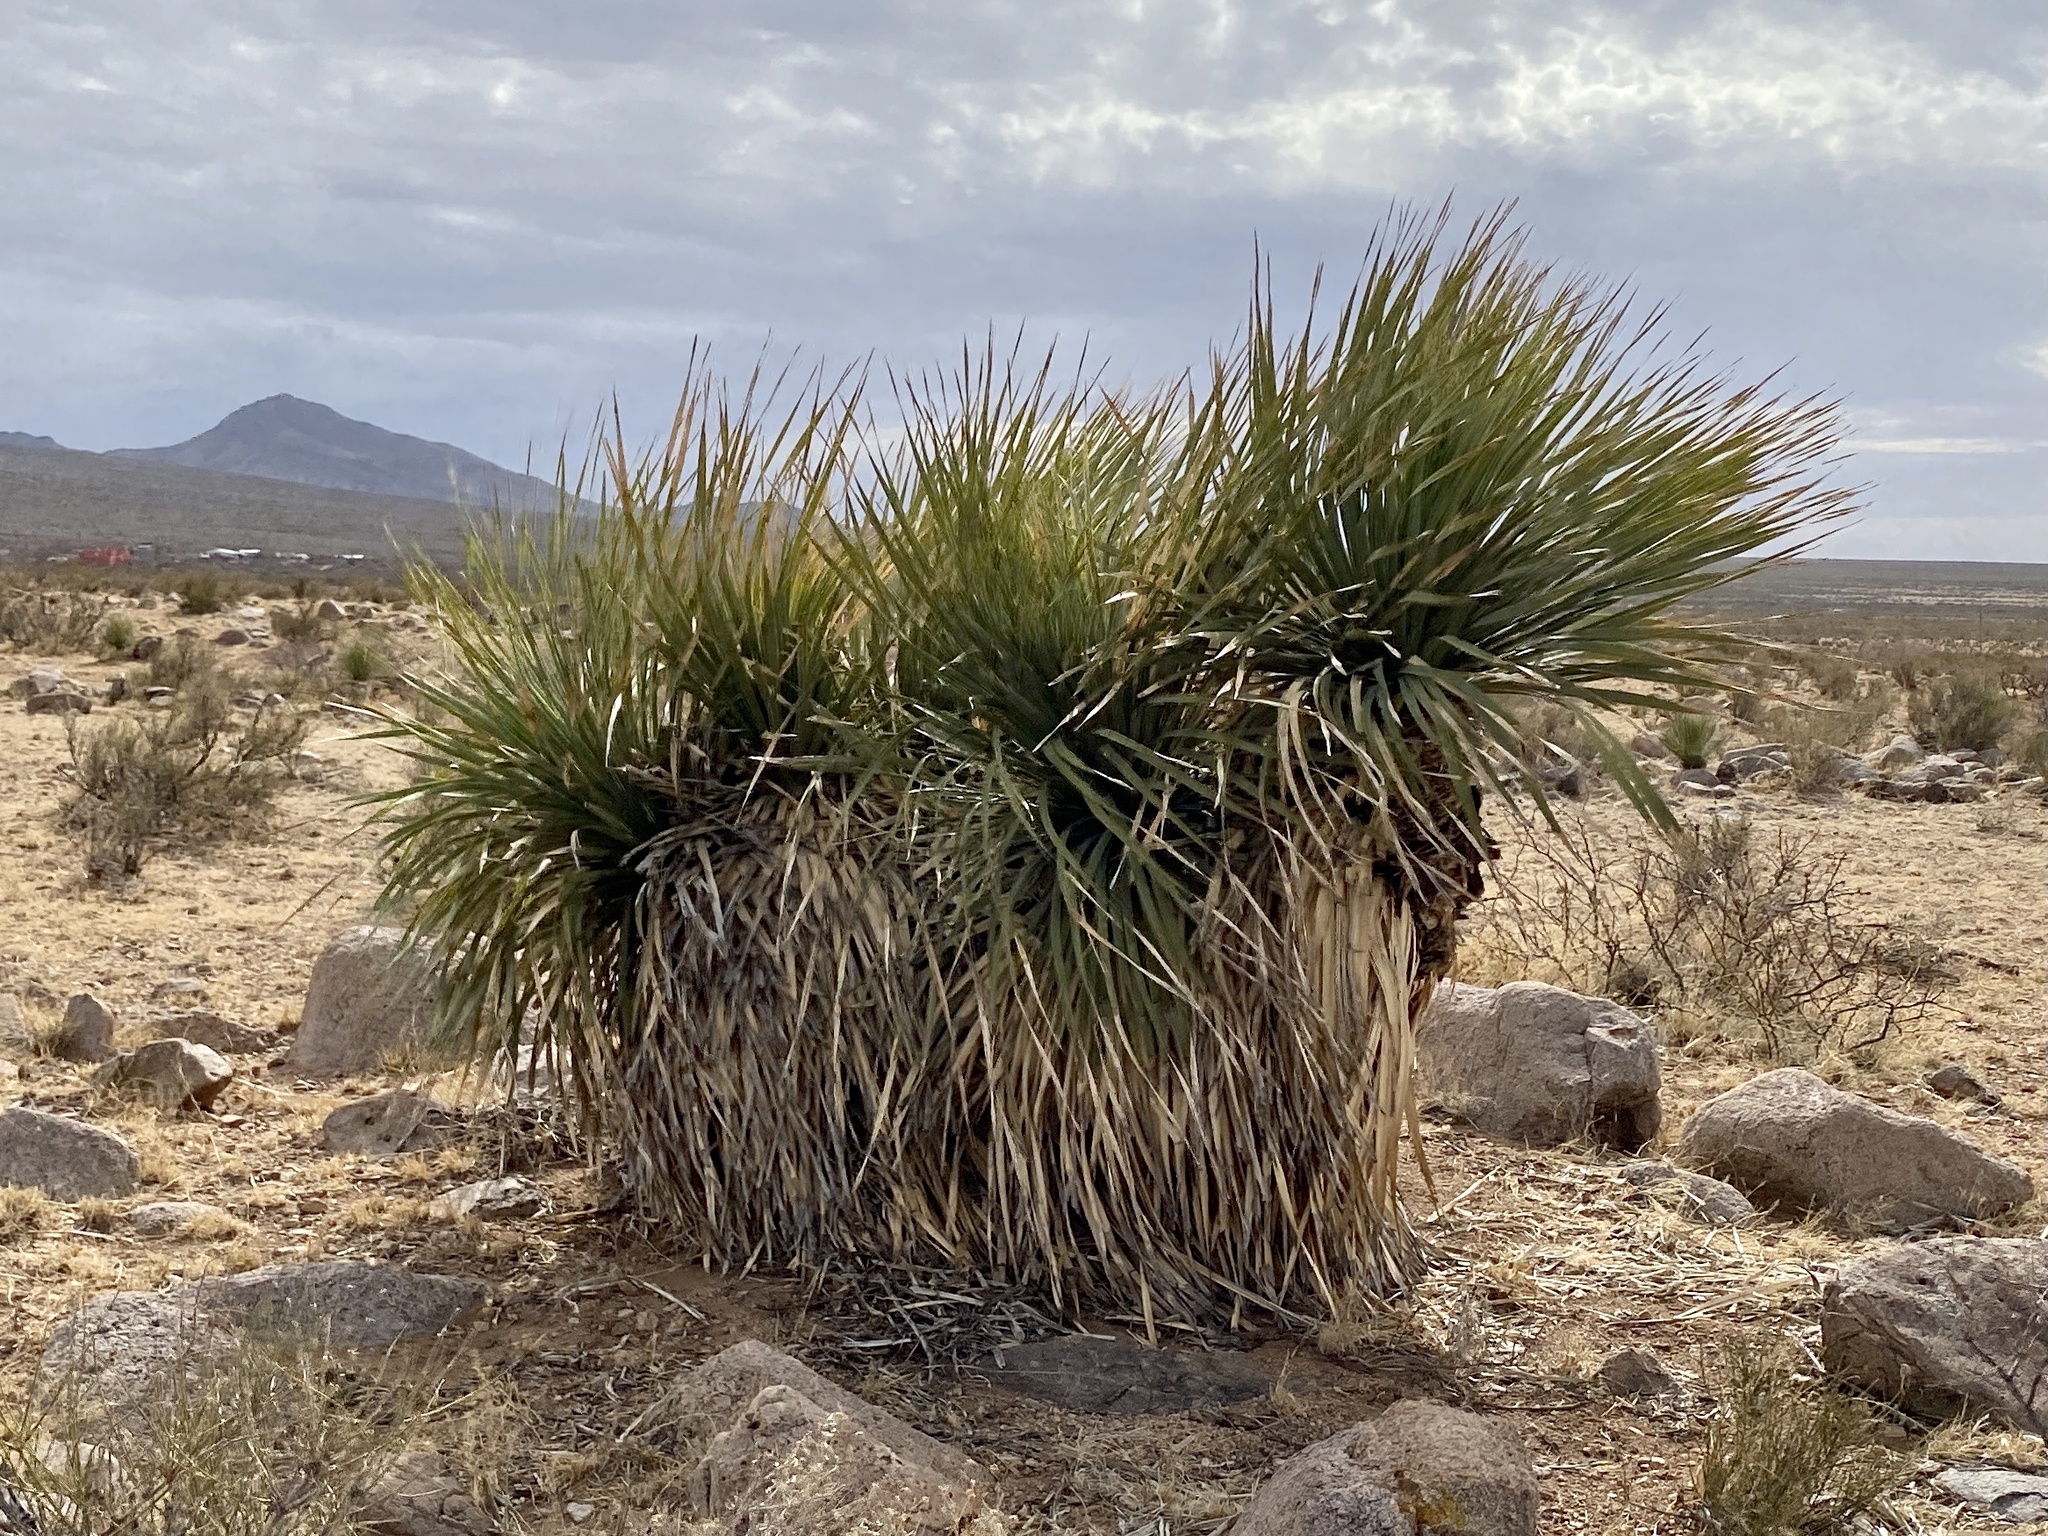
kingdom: Plantae
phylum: Tracheophyta
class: Liliopsida
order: Asparagales
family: Asparagaceae
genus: Dasylirion
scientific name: Dasylirion wheeleri
